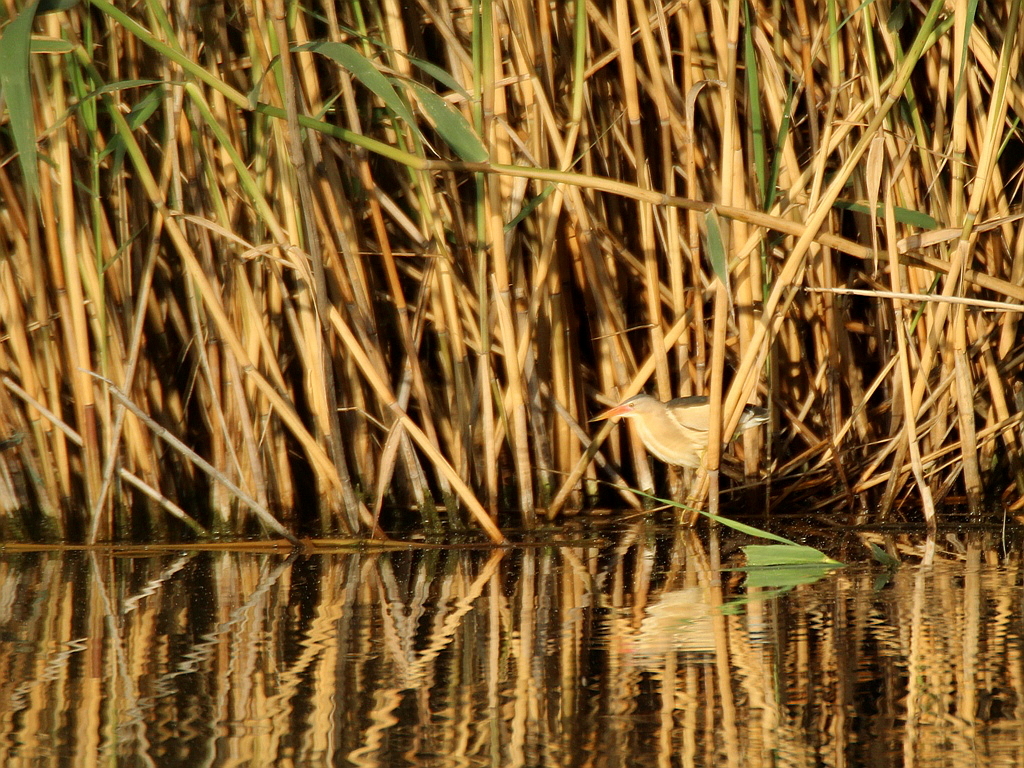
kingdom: Animalia
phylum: Chordata
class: Aves
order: Pelecaniformes
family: Ardeidae
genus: Ixobrychus
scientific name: Ixobrychus minutus
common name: Little bittern
